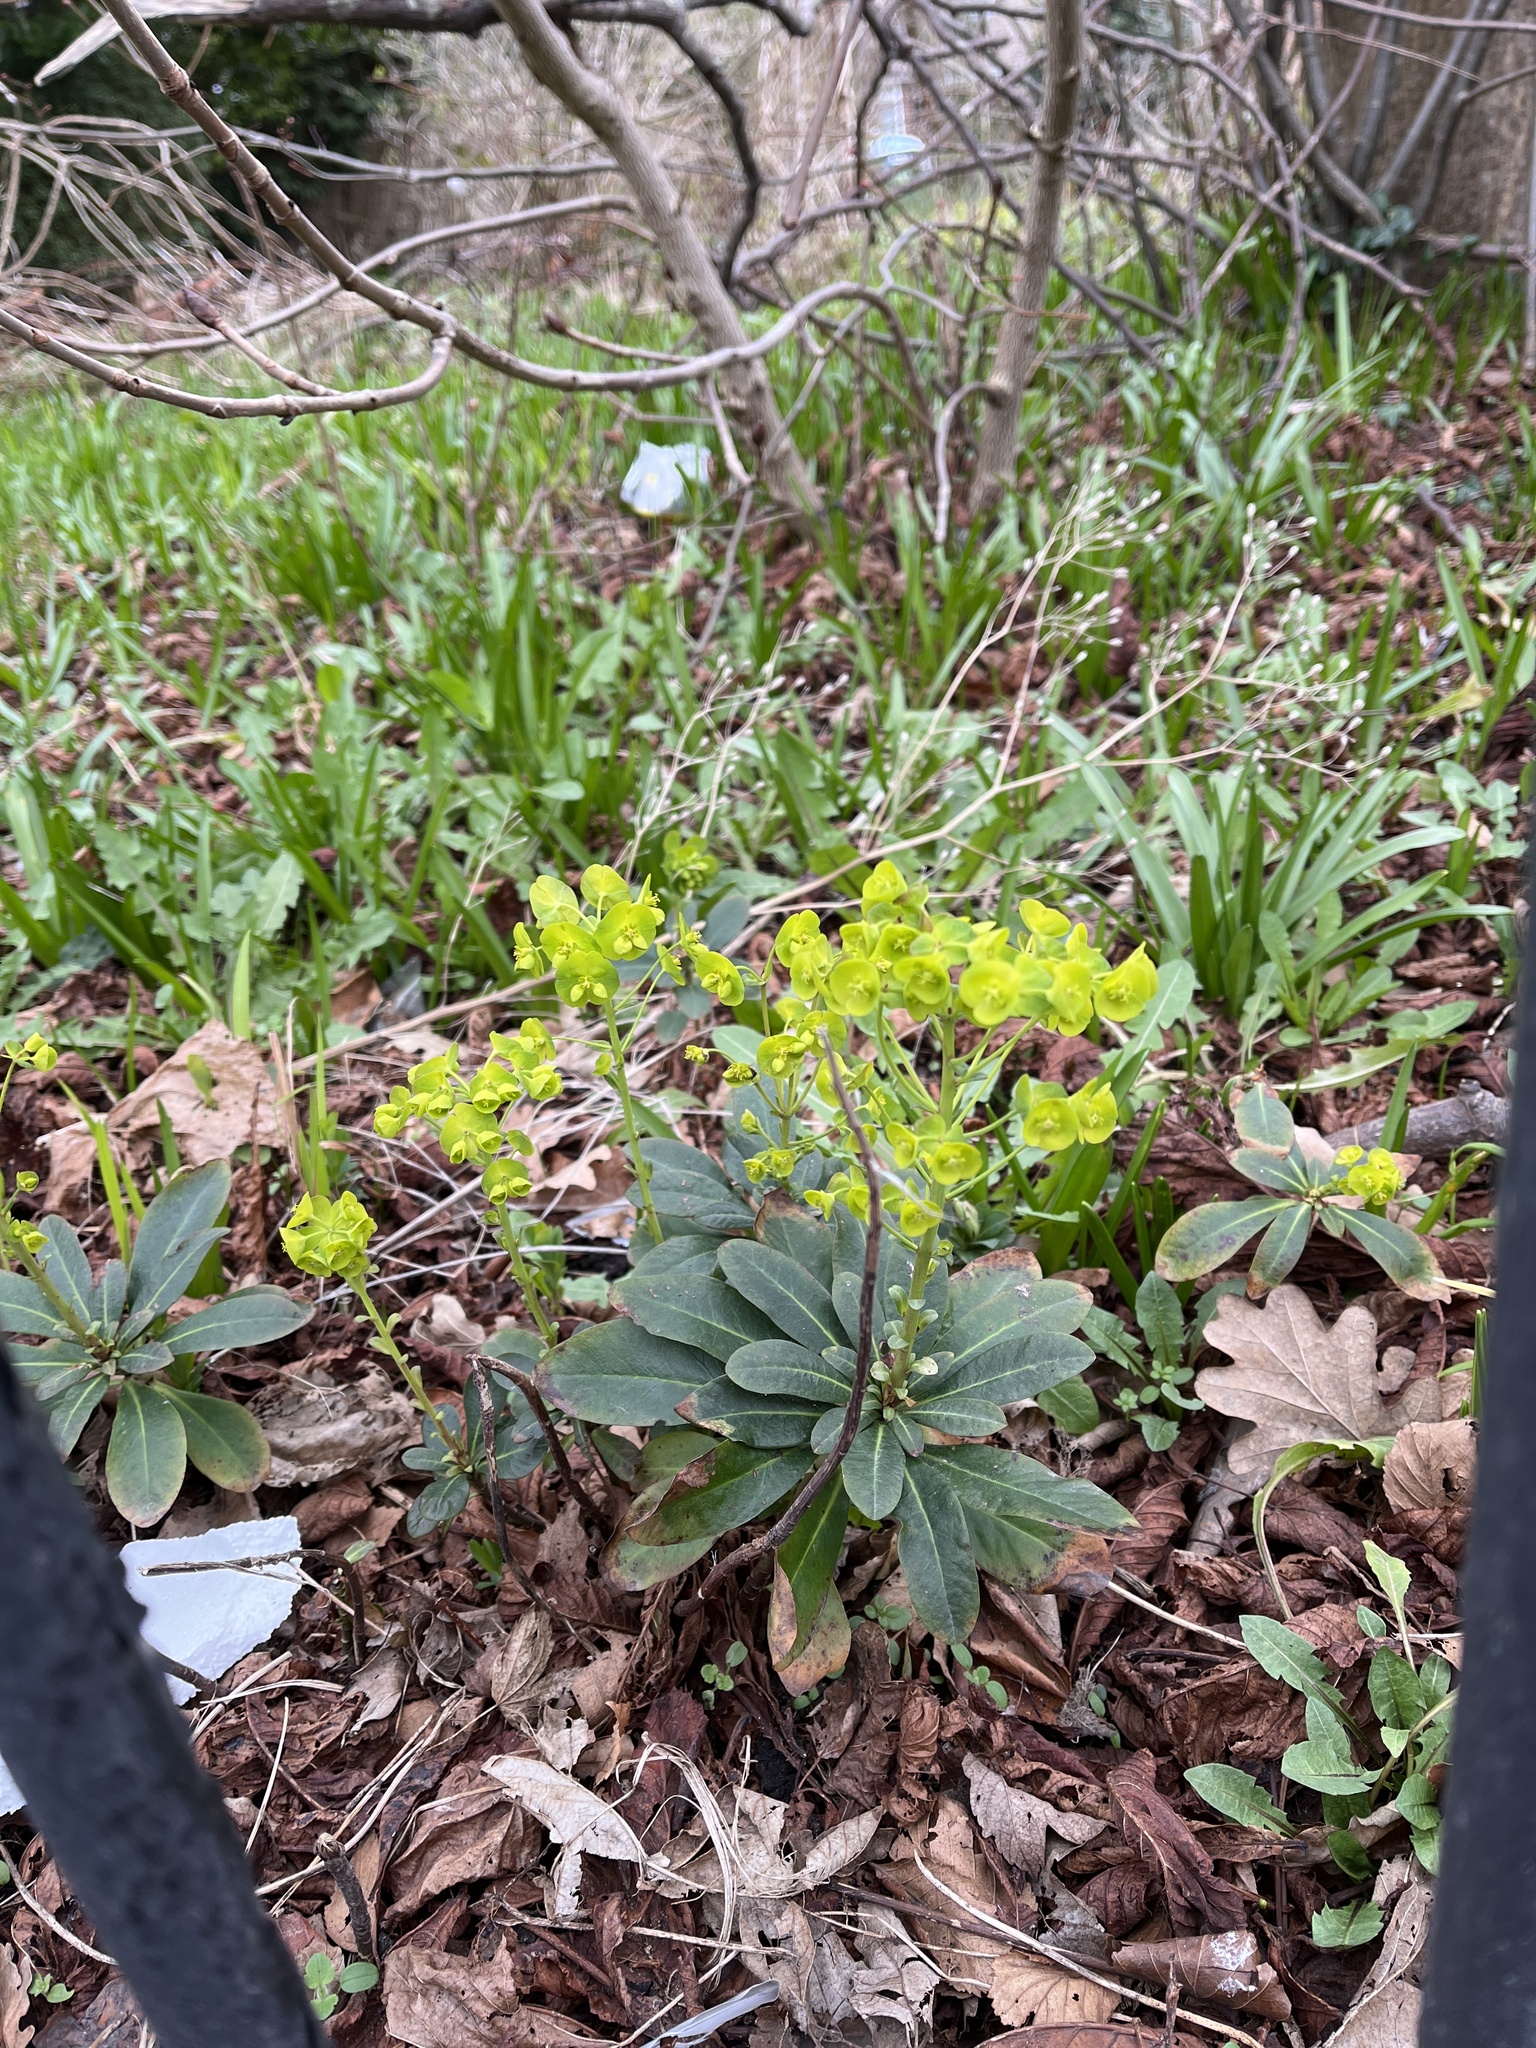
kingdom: Plantae
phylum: Tracheophyta
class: Magnoliopsida
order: Malpighiales
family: Euphorbiaceae
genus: Euphorbia
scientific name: Euphorbia amygdaloides
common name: Wood spurge
